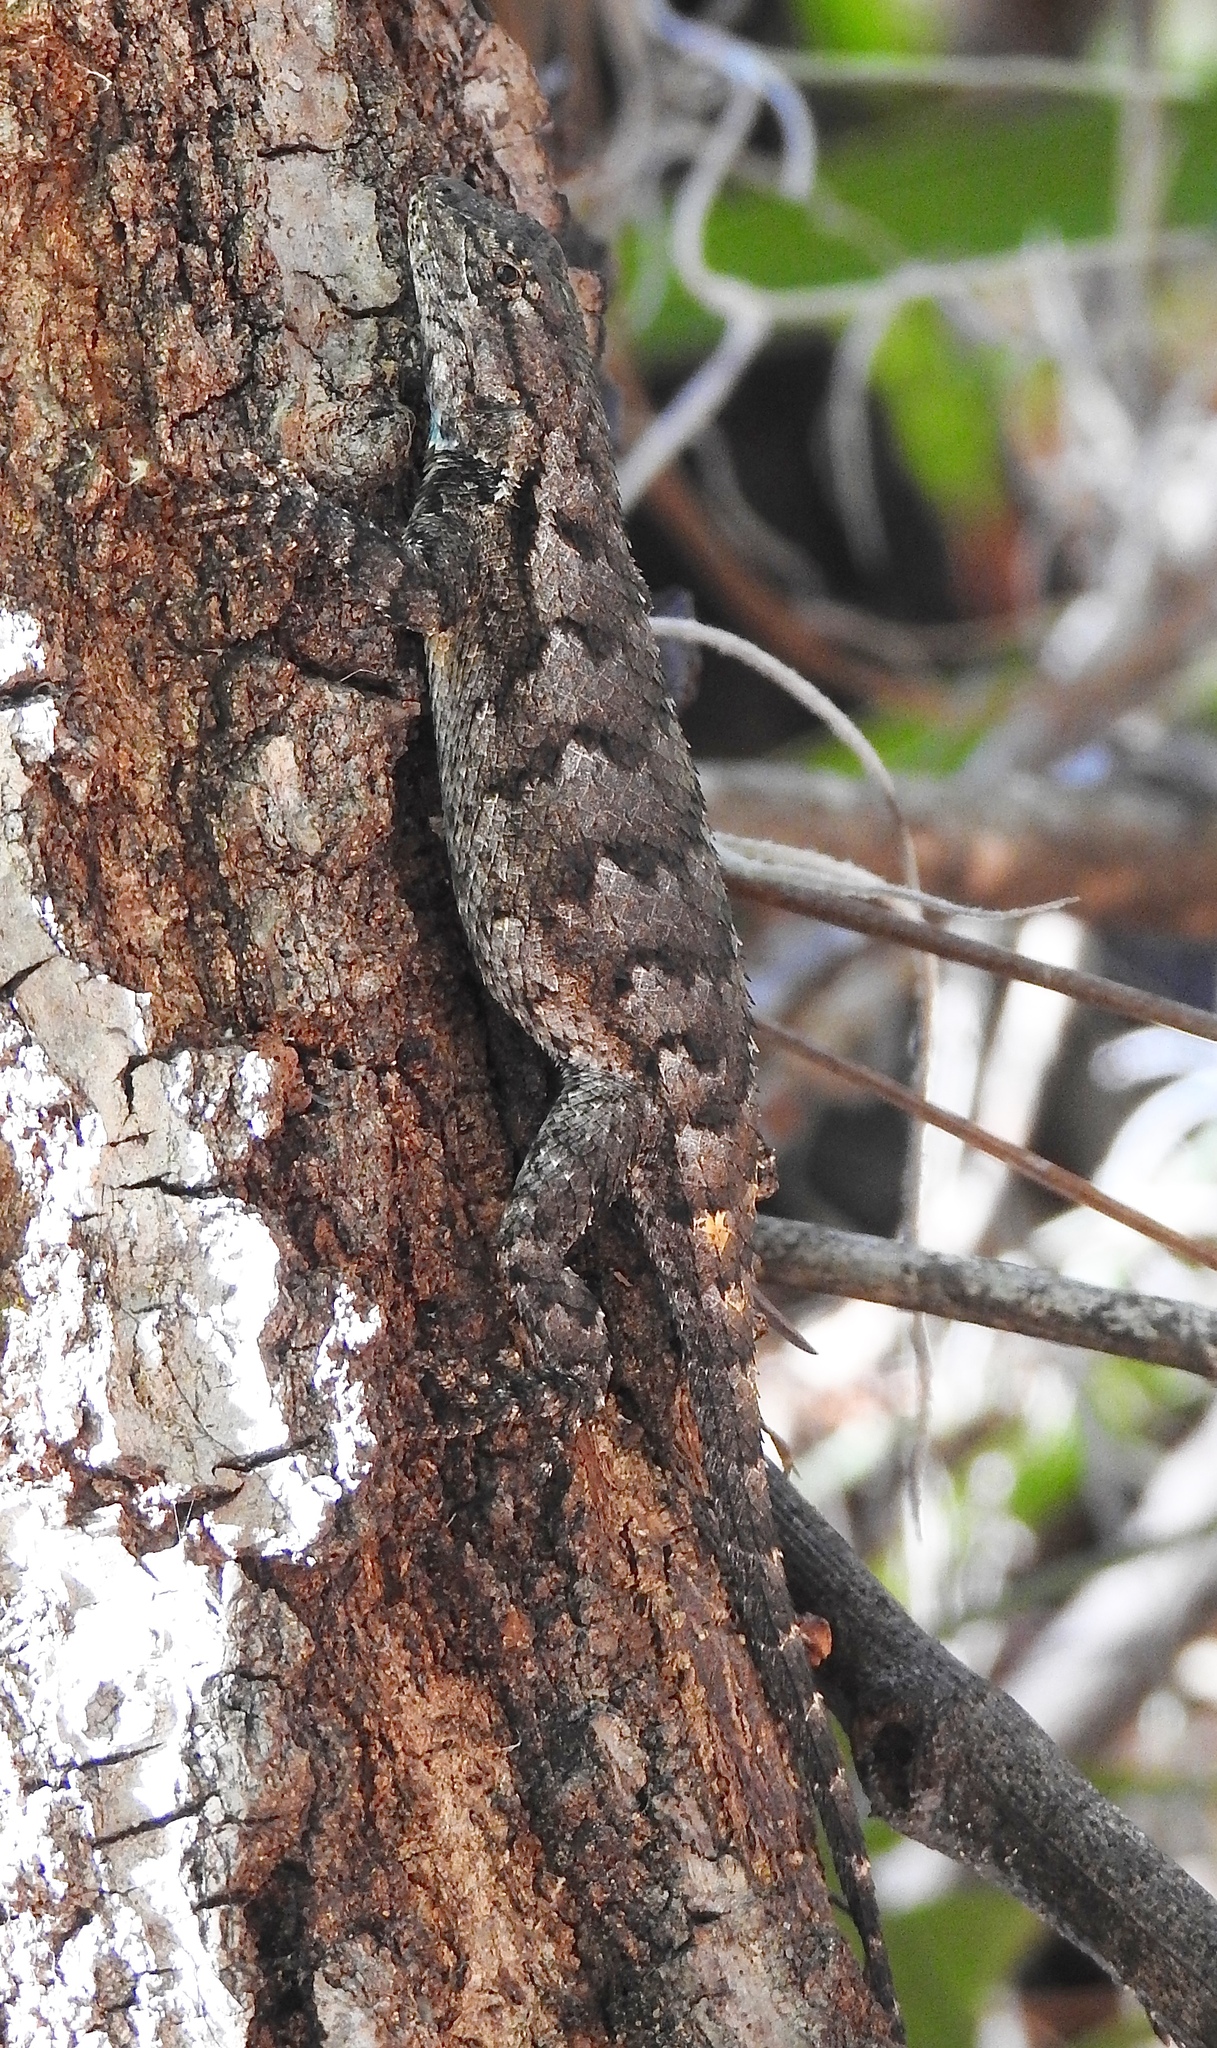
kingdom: Animalia
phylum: Chordata
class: Squamata
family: Phrynosomatidae
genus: Sceloporus
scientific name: Sceloporus undulatus
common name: Eastern fence lizard
